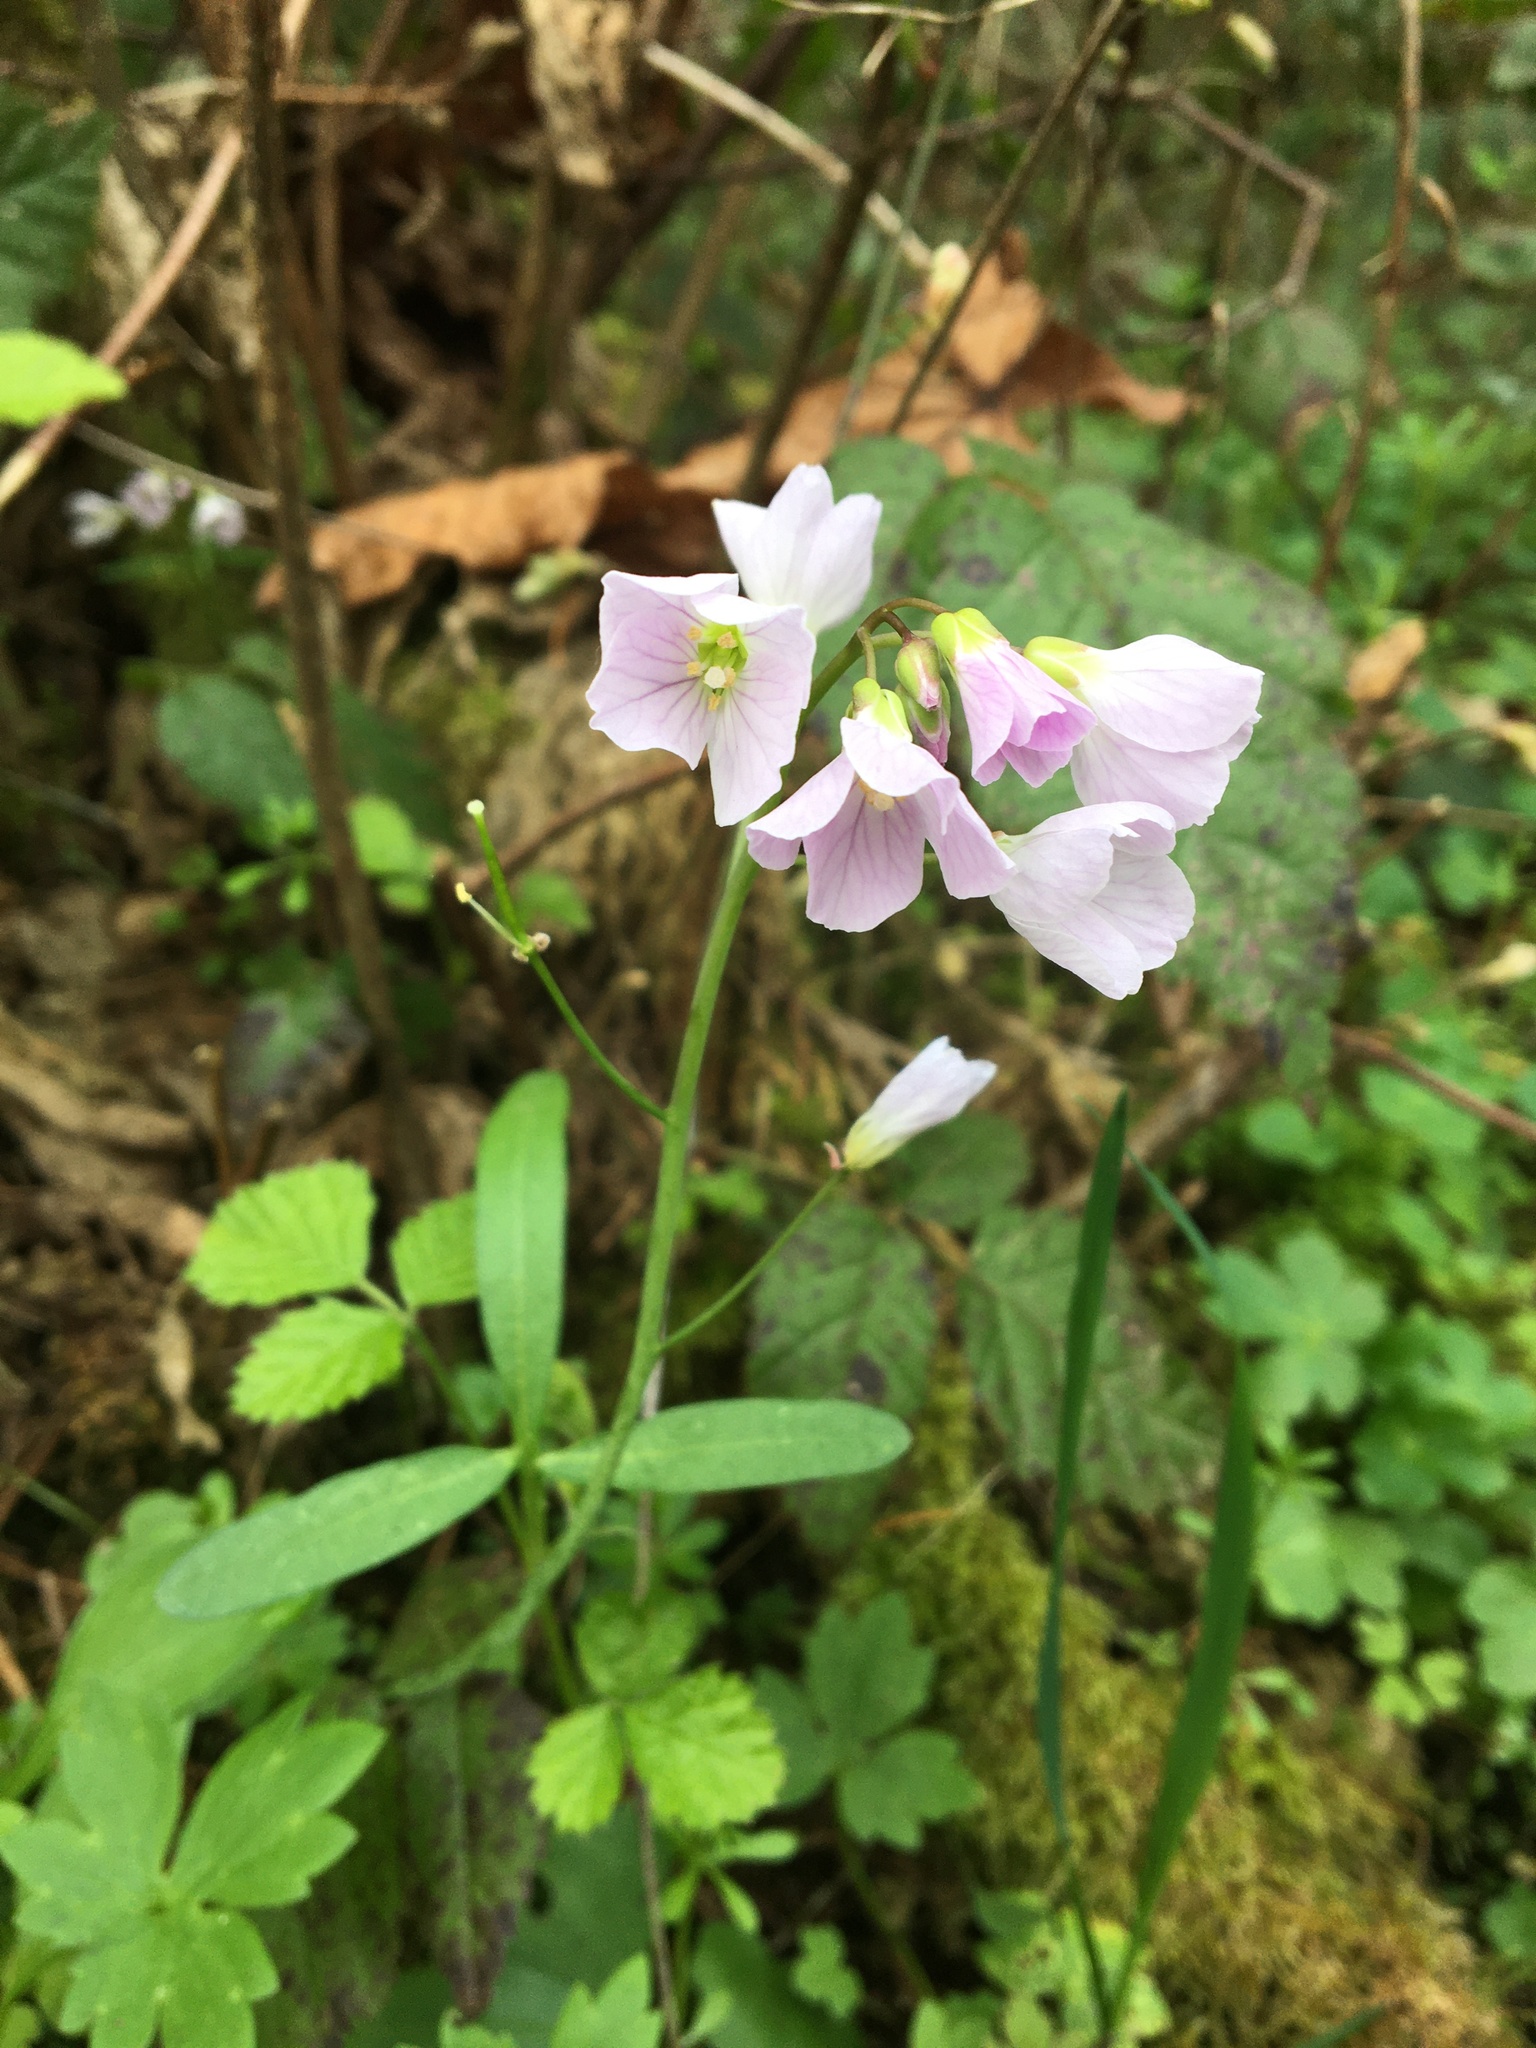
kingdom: Plantae
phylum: Tracheophyta
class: Magnoliopsida
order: Brassicales
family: Brassicaceae
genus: Cardamine
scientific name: Cardamine nuttallii
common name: Nuttall's toothwort
